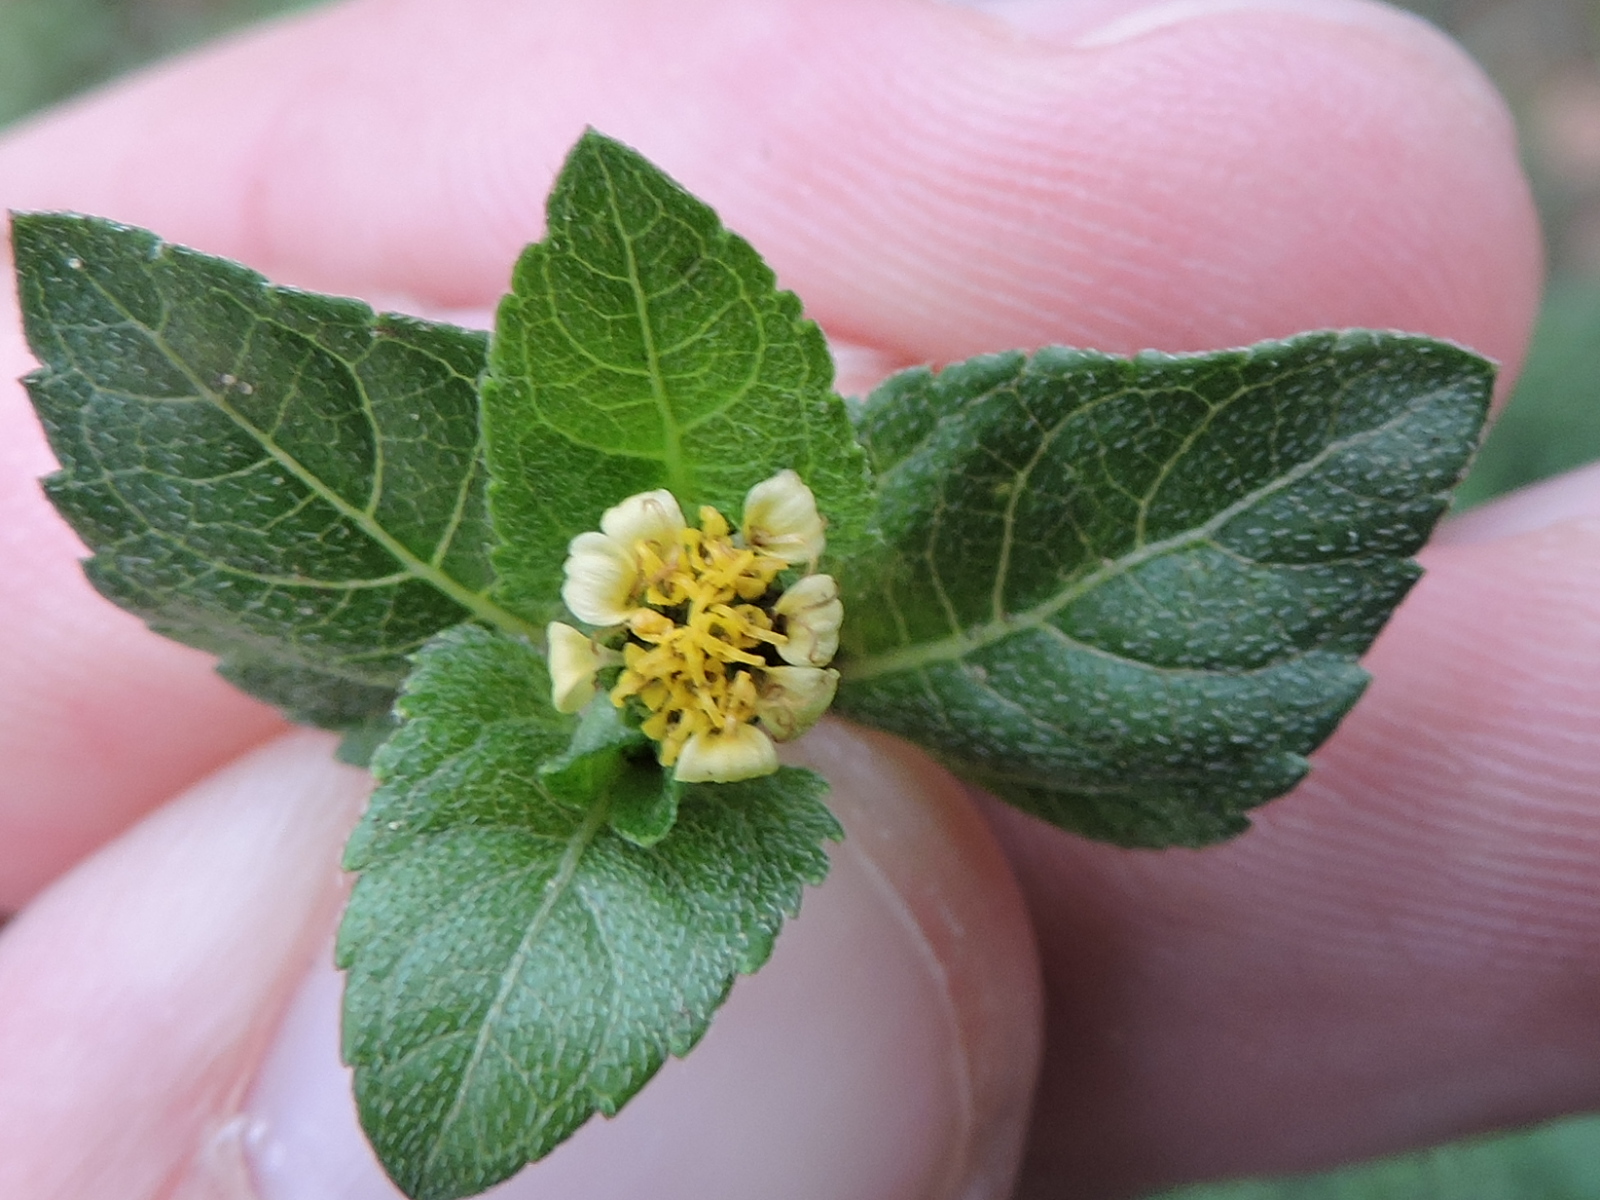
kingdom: Plantae
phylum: Tracheophyta
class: Magnoliopsida
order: Asterales
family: Asteraceae
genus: Calyptocarpus
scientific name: Calyptocarpus vialis
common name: Straggler daisy
